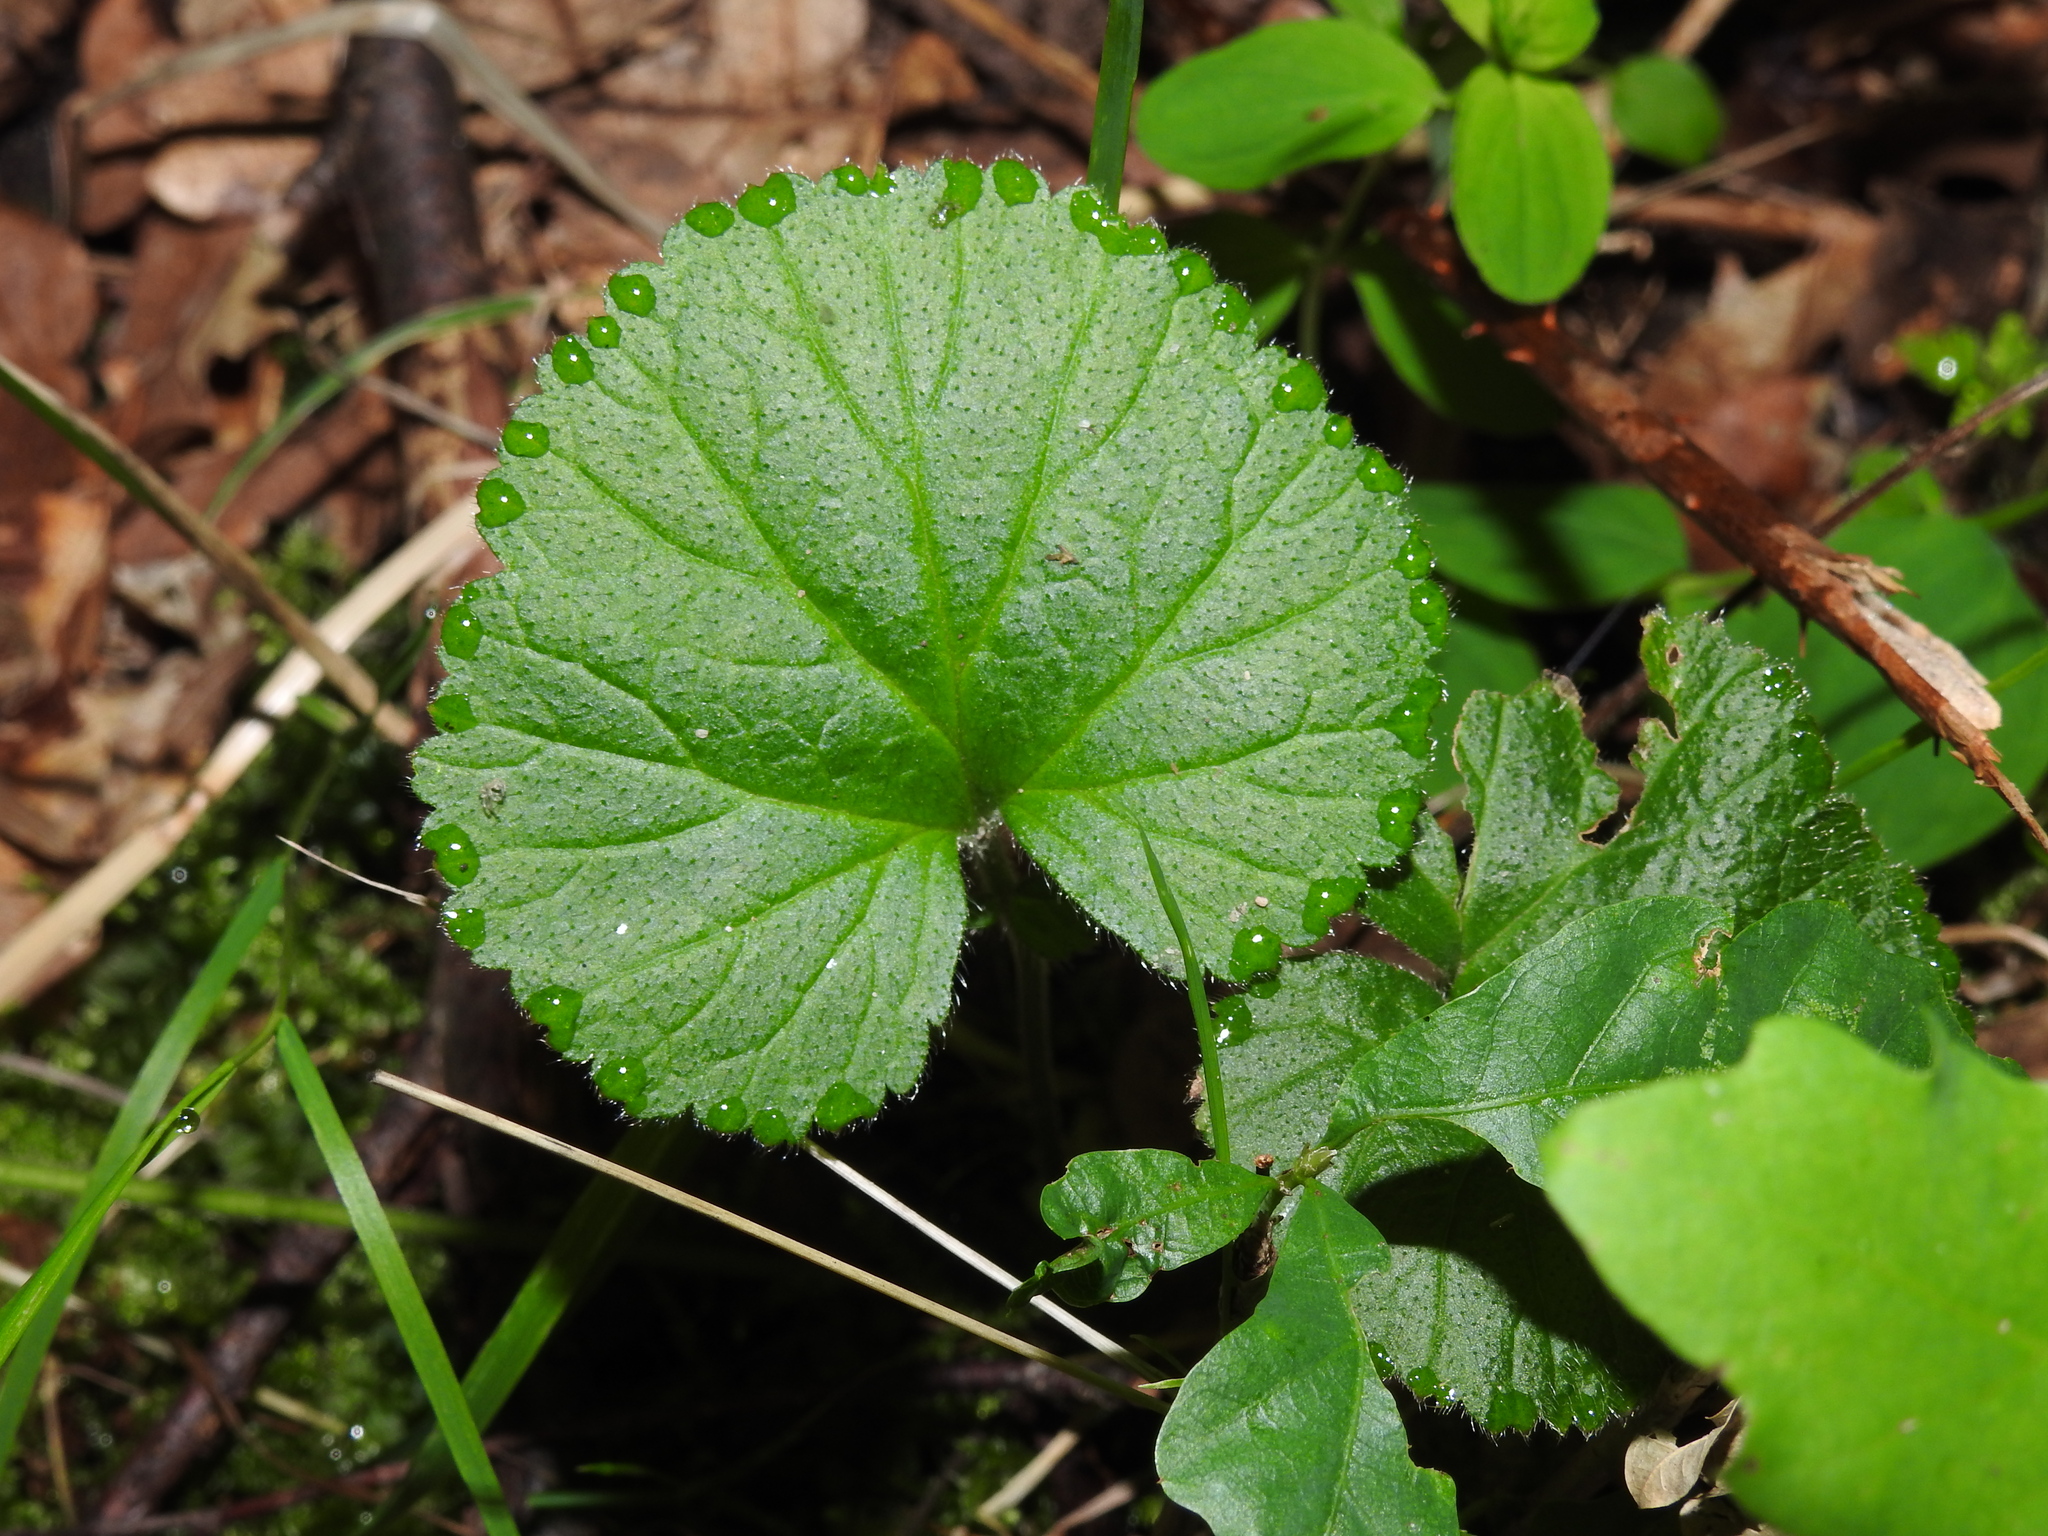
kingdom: Plantae
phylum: Tracheophyta
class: Magnoliopsida
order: Rosales
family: Rosaceae
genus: Geum
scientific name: Geum urbanum
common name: Wood avens
